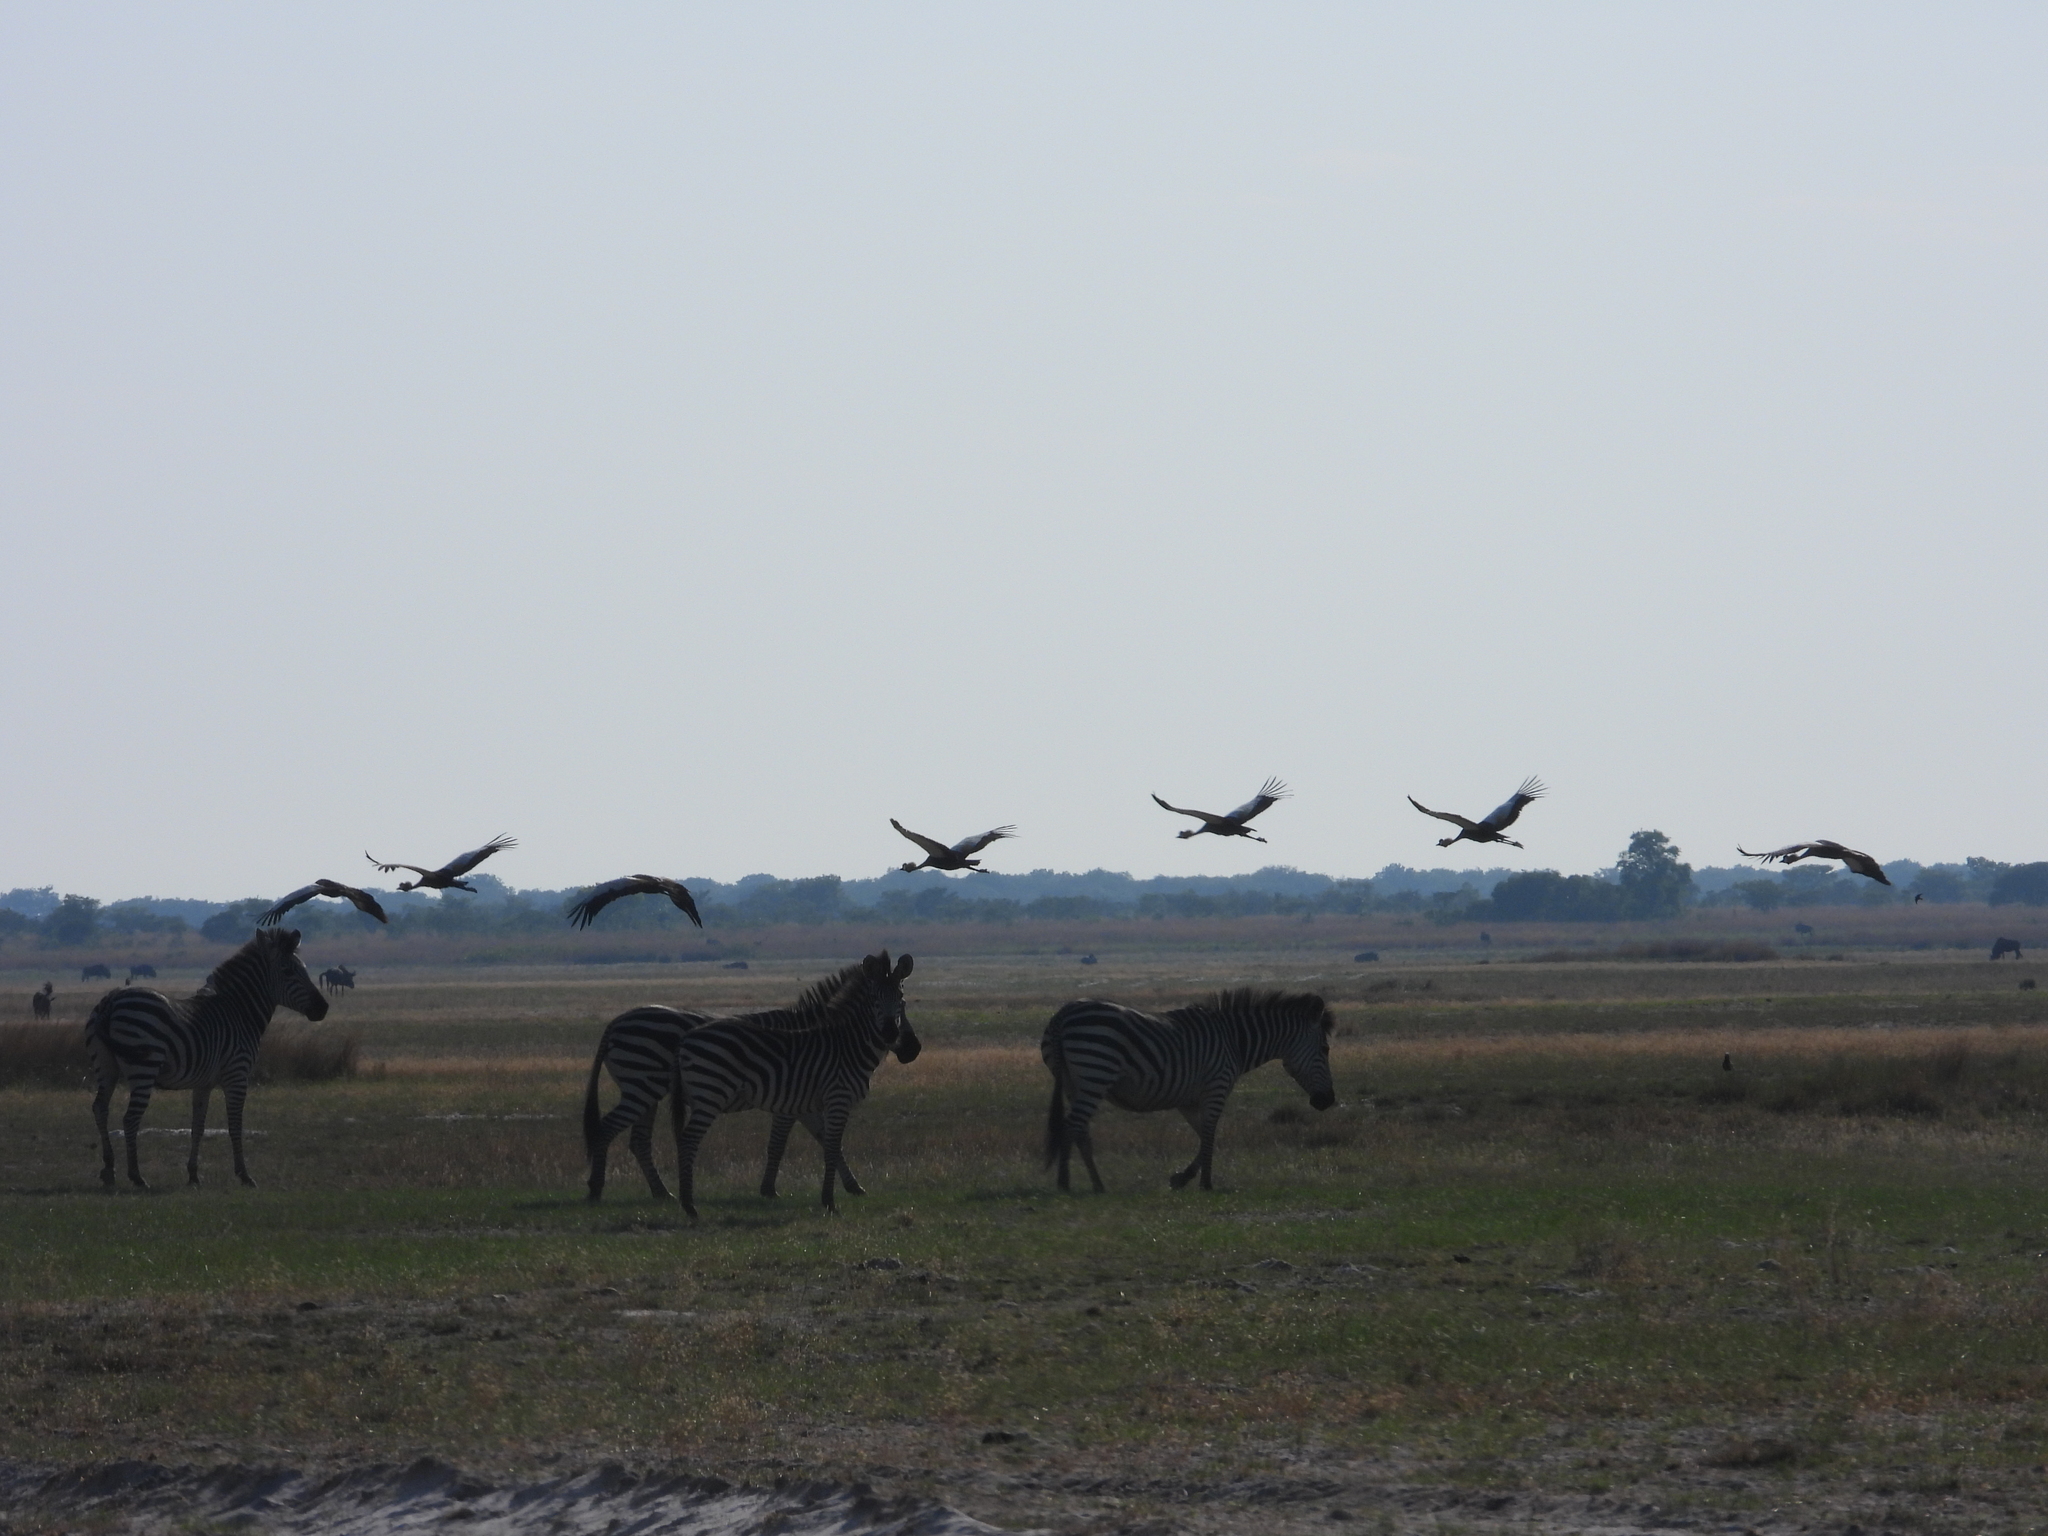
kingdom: Animalia
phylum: Chordata
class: Mammalia
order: Perissodactyla
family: Equidae
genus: Equus
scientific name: Equus quagga
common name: Plains zebra
